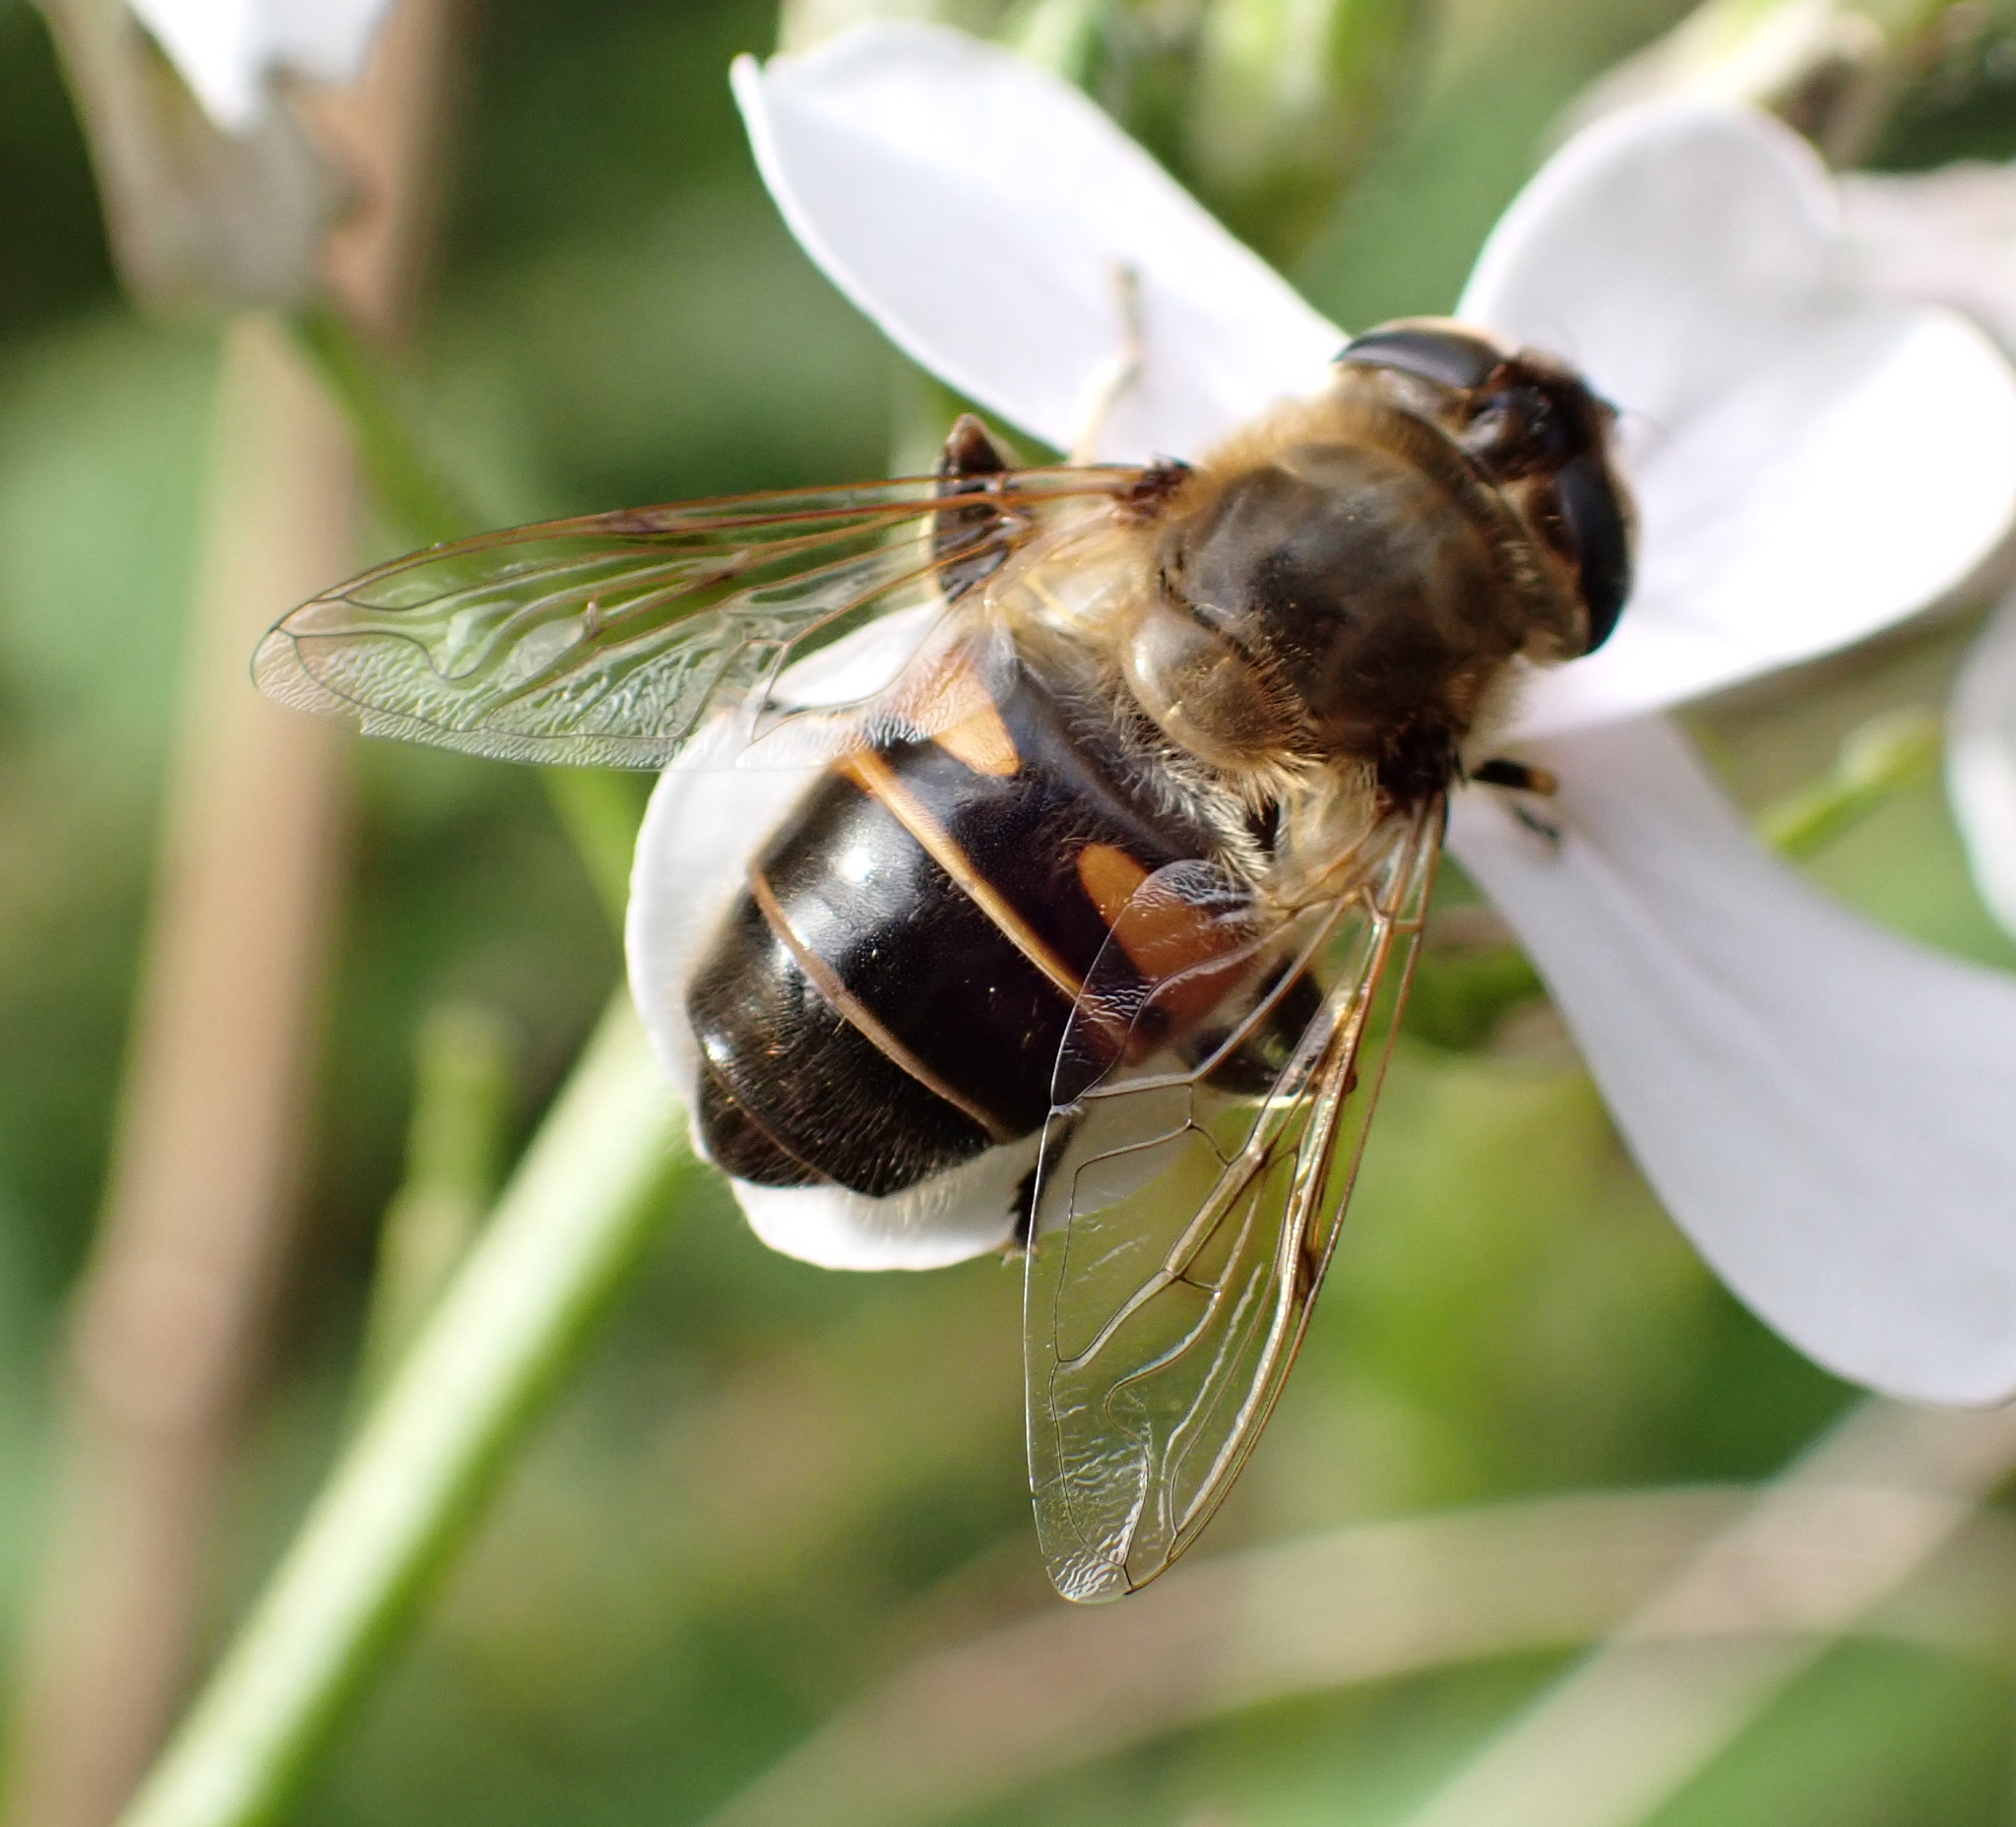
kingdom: Animalia
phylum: Arthropoda
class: Insecta
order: Diptera
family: Syrphidae
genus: Eristalis
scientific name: Eristalis tenax
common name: Drone fly
